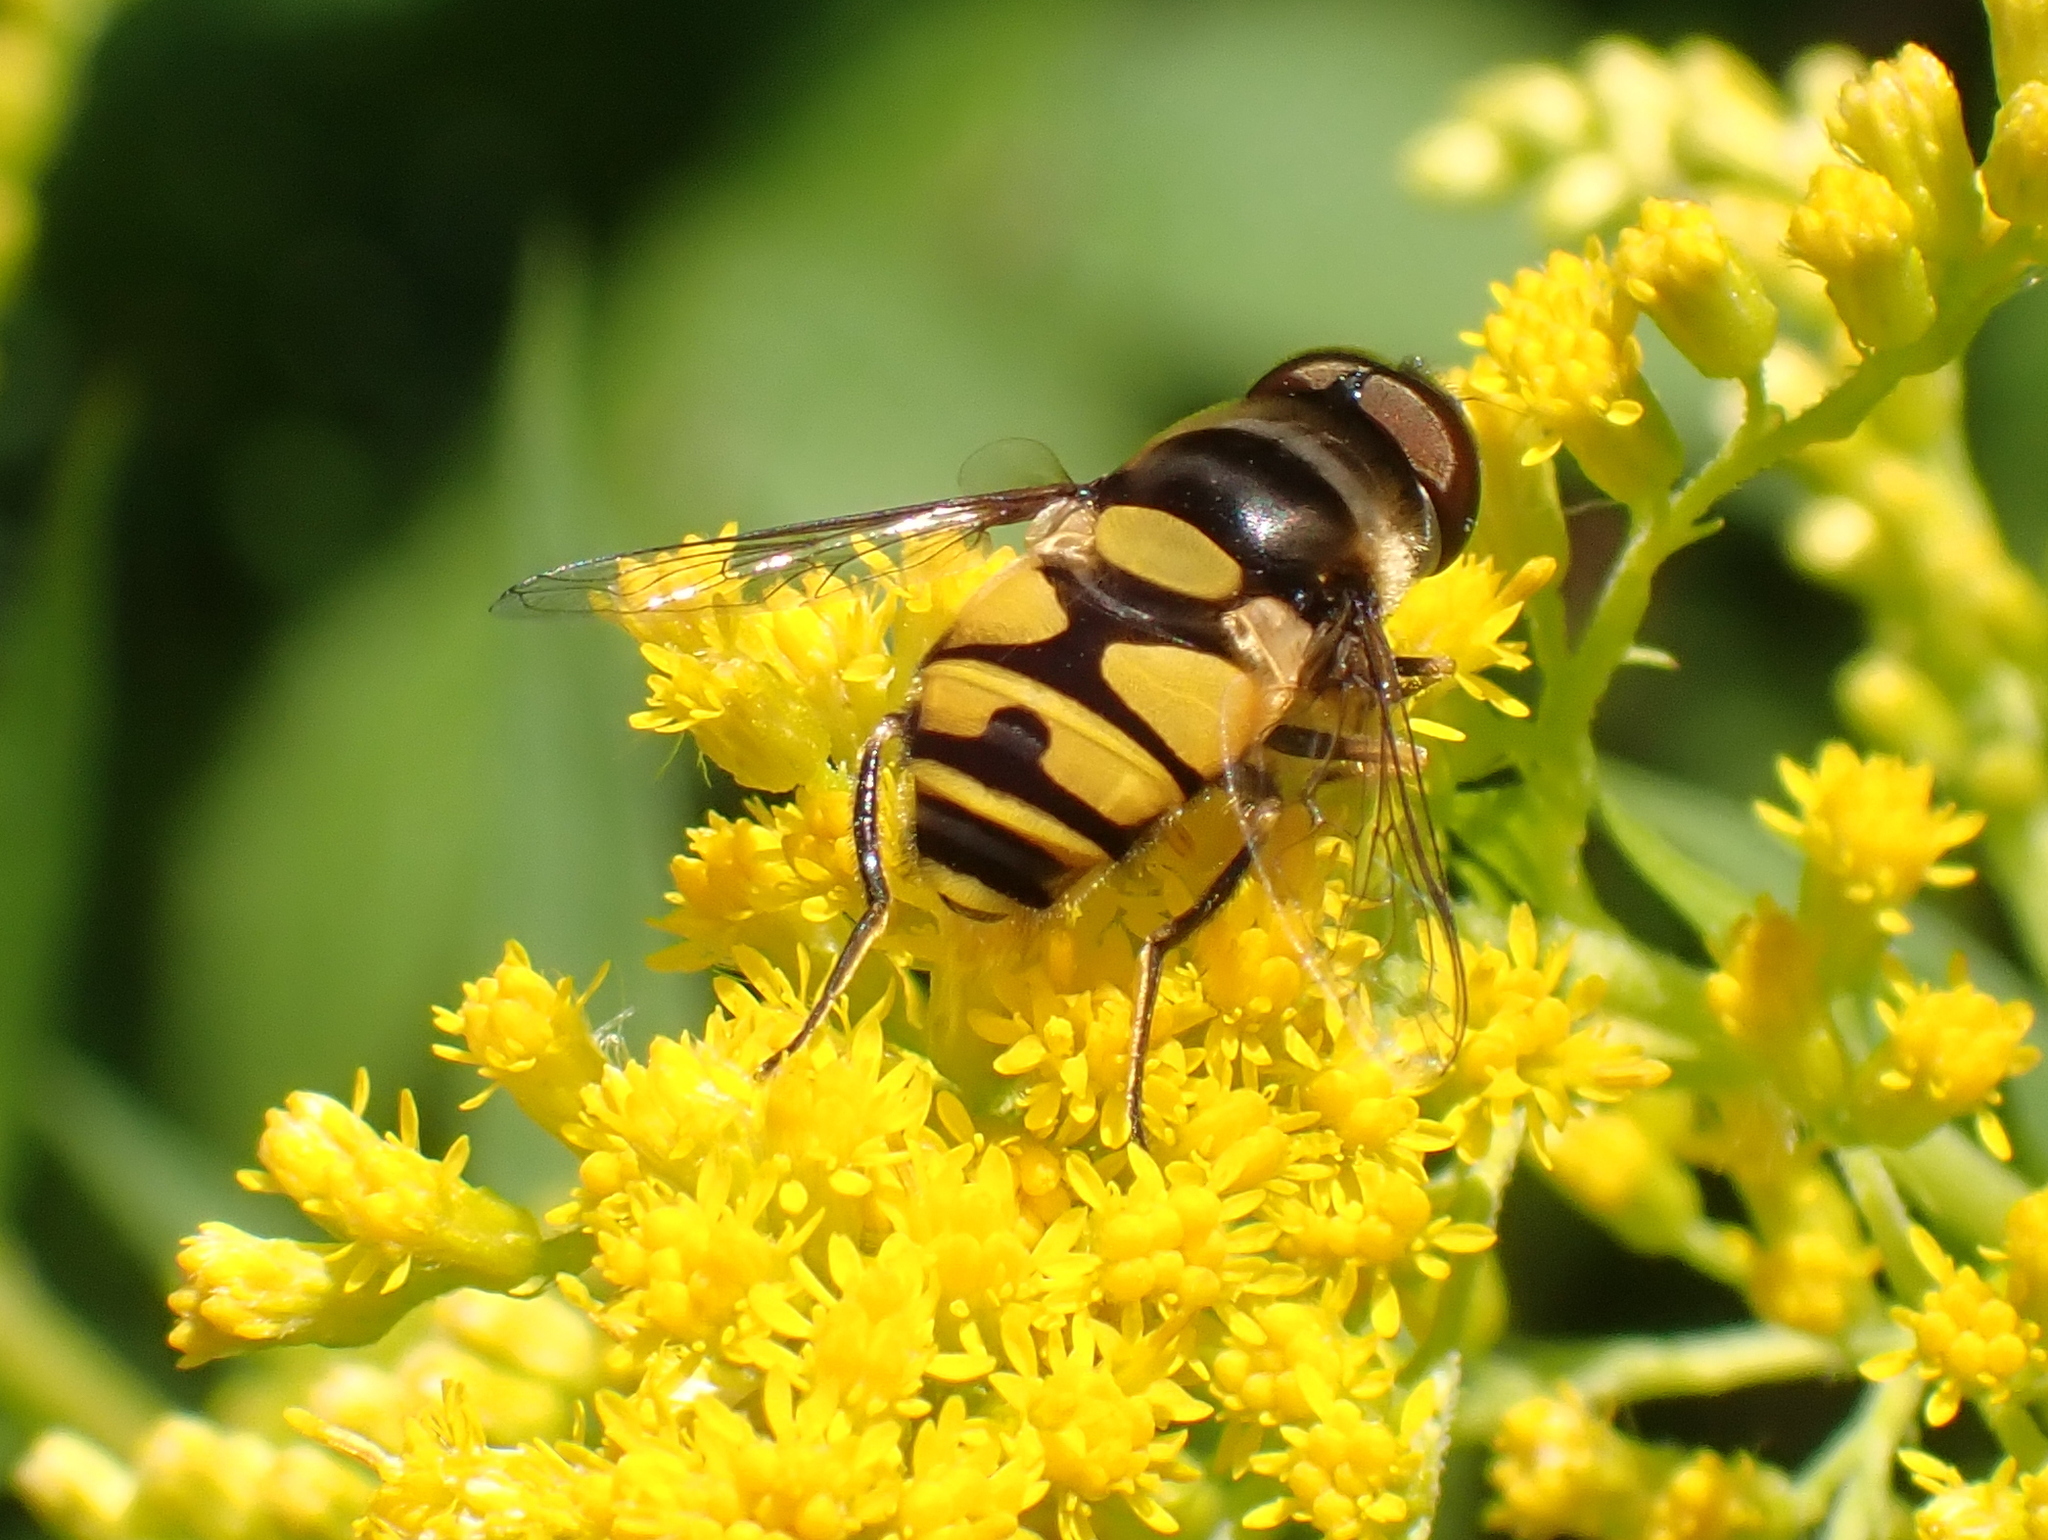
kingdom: Animalia
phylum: Arthropoda
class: Insecta
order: Diptera
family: Syrphidae
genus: Eristalis
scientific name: Eristalis transversa
